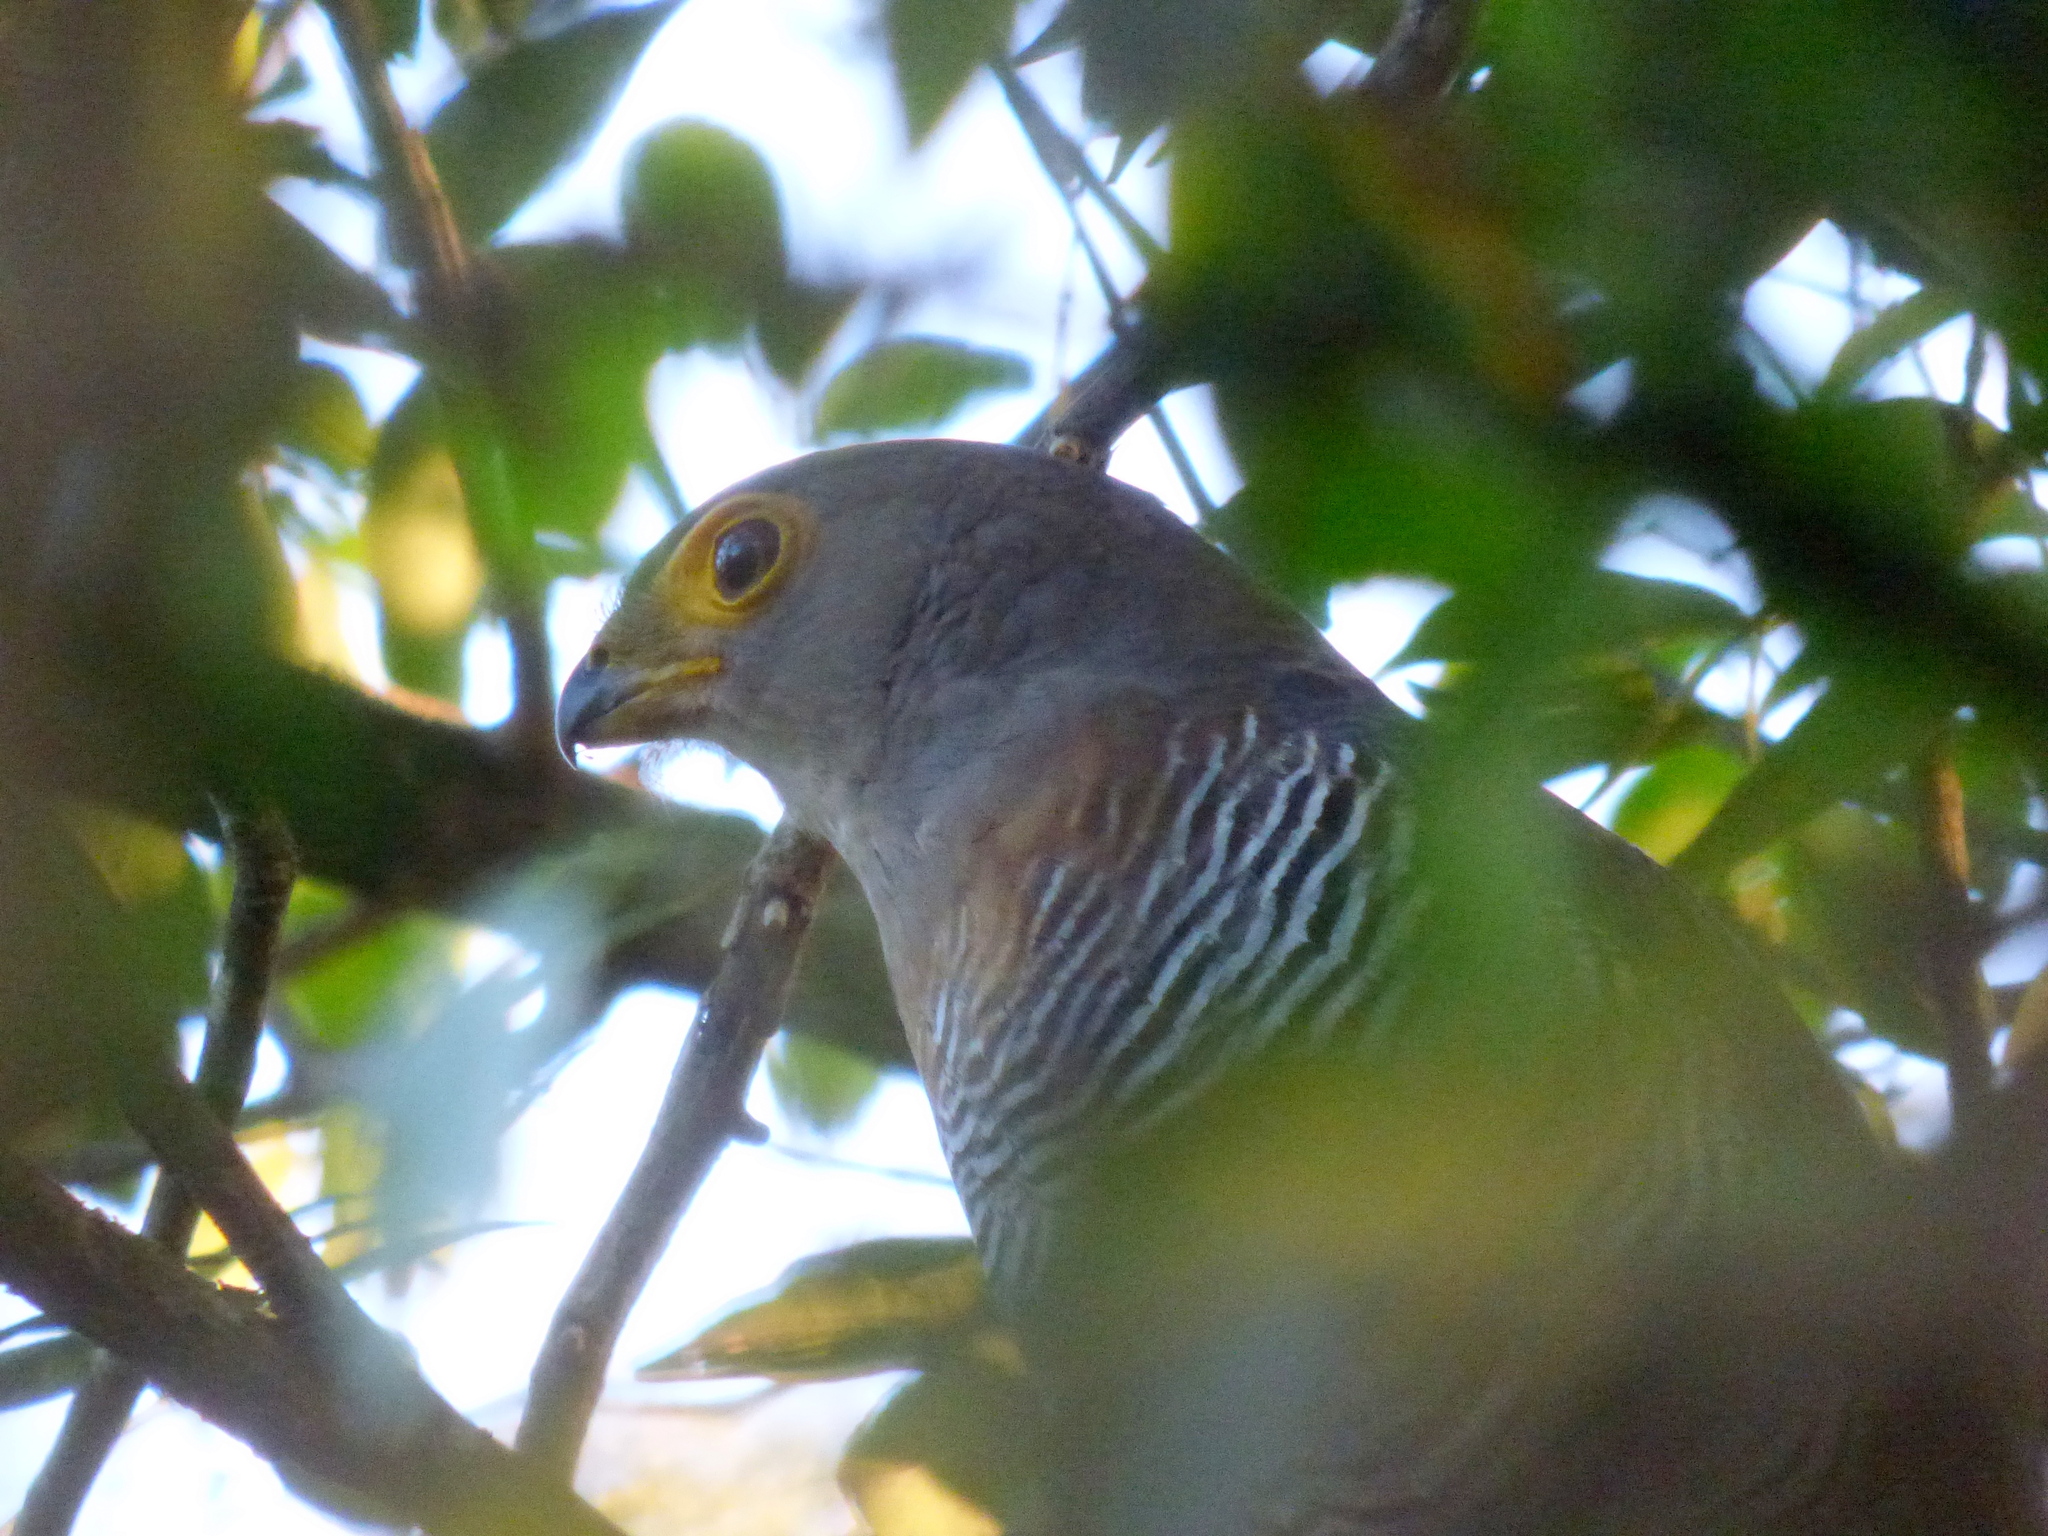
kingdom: Animalia
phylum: Chordata
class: Aves
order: Falconiformes
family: Falconidae
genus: Micrastur
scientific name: Micrastur ruficollis
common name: Barred forest-falcon
